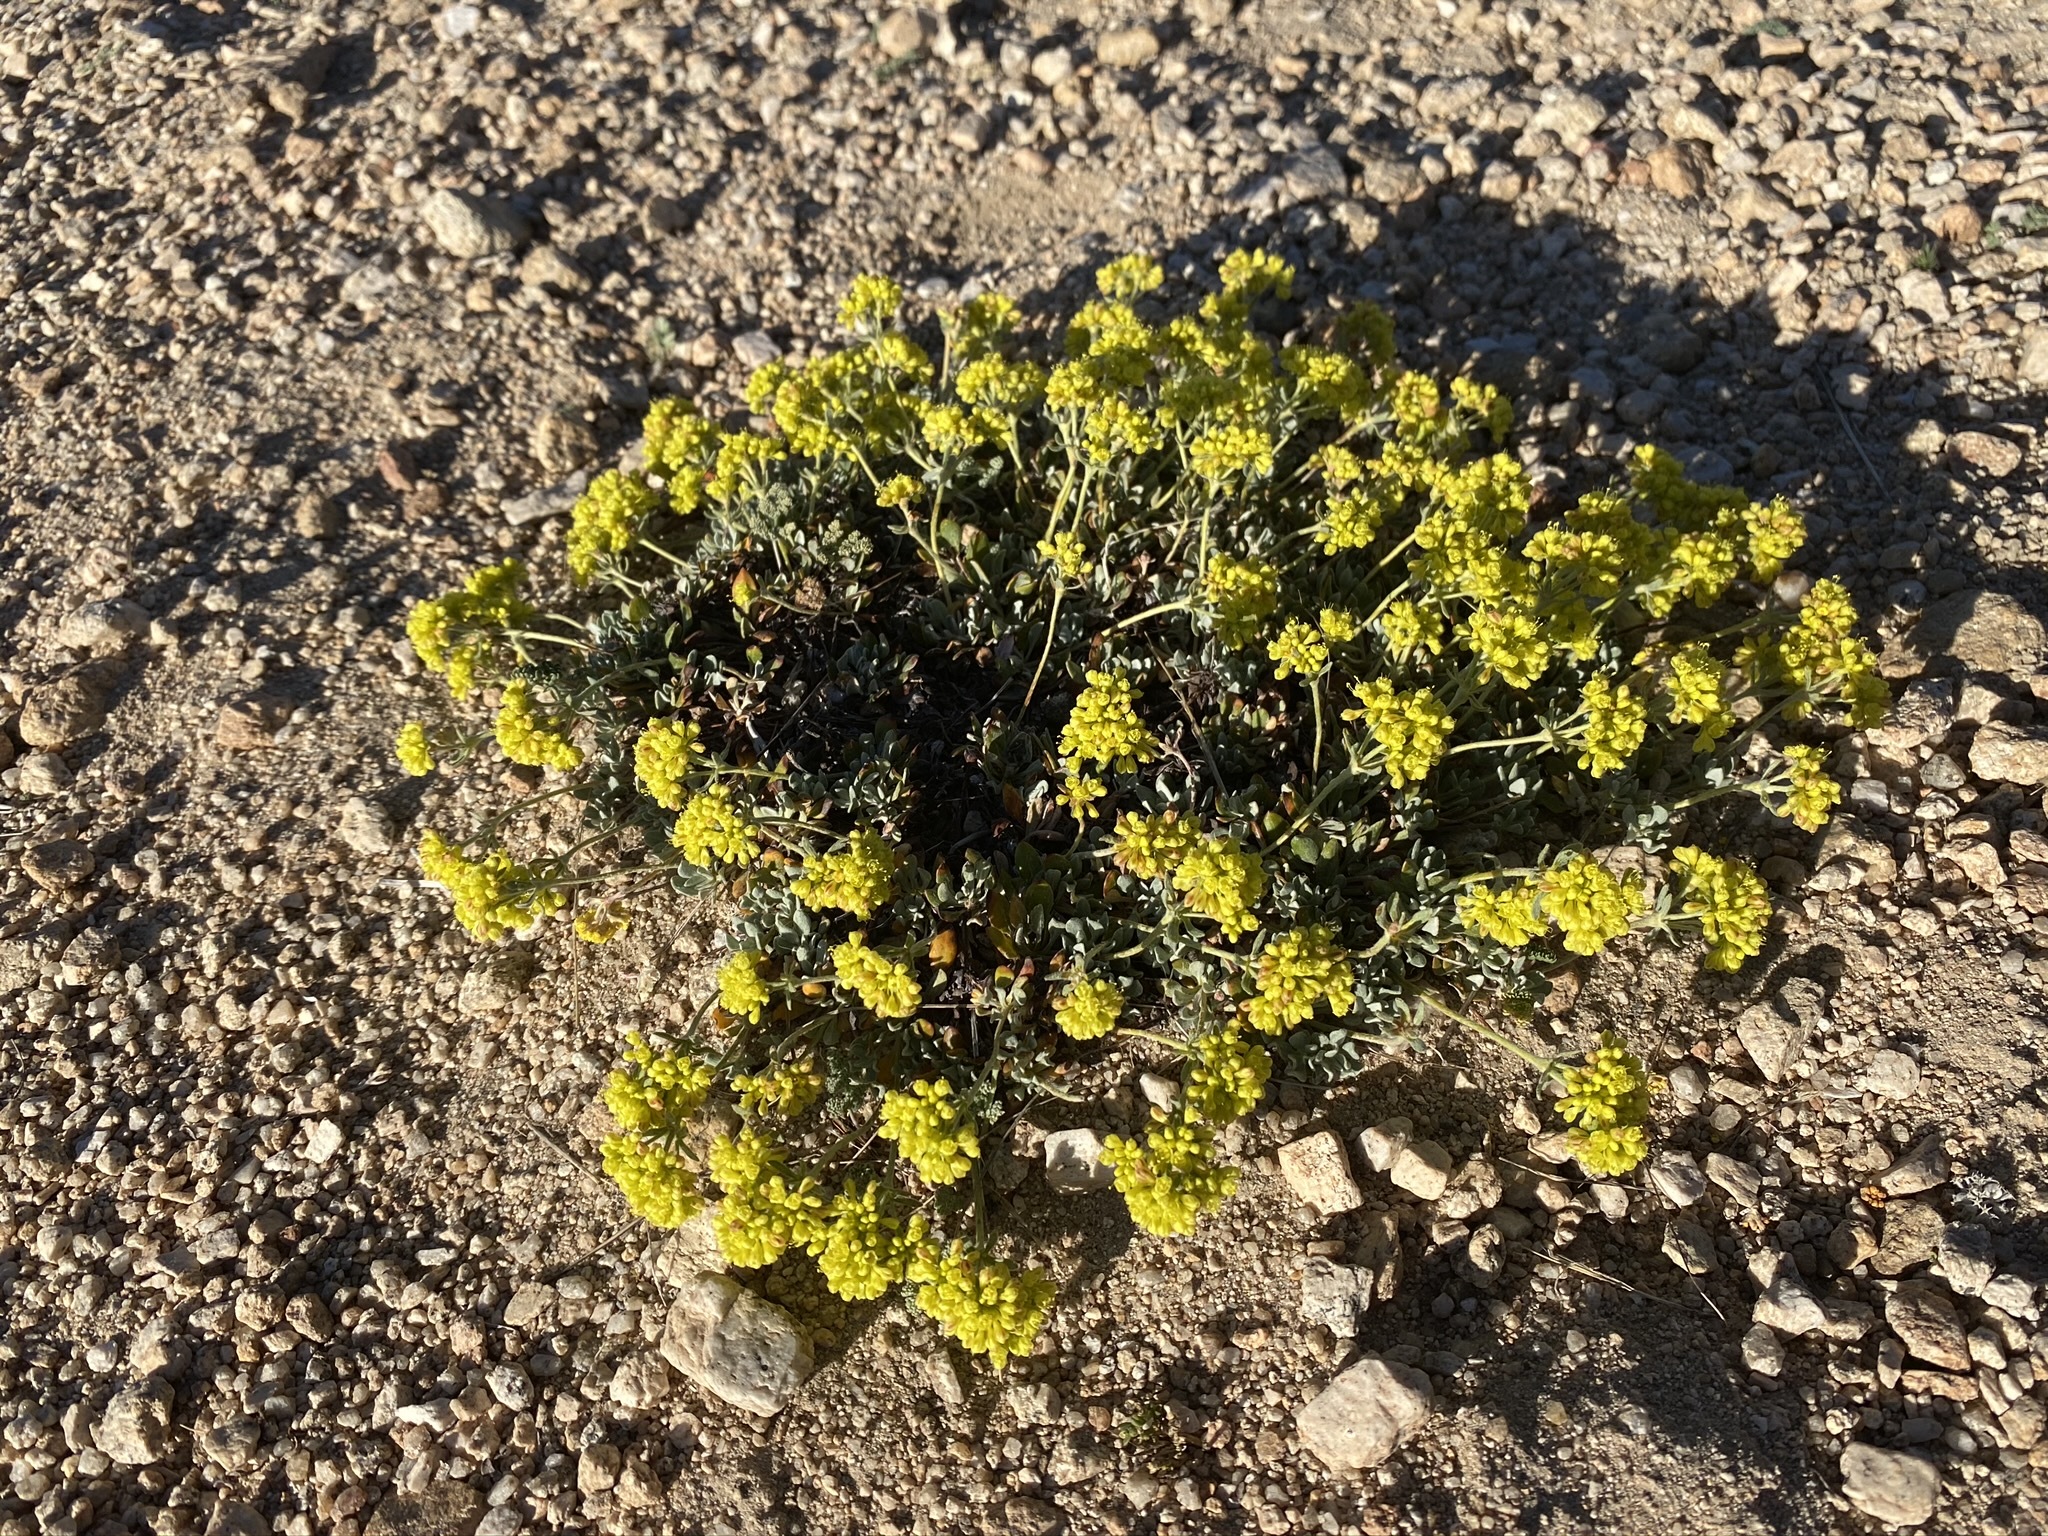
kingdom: Plantae
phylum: Tracheophyta
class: Magnoliopsida
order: Caryophyllales
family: Polygonaceae
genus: Eriogonum
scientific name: Eriogonum umbellatum
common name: Sulfur-buckwheat
